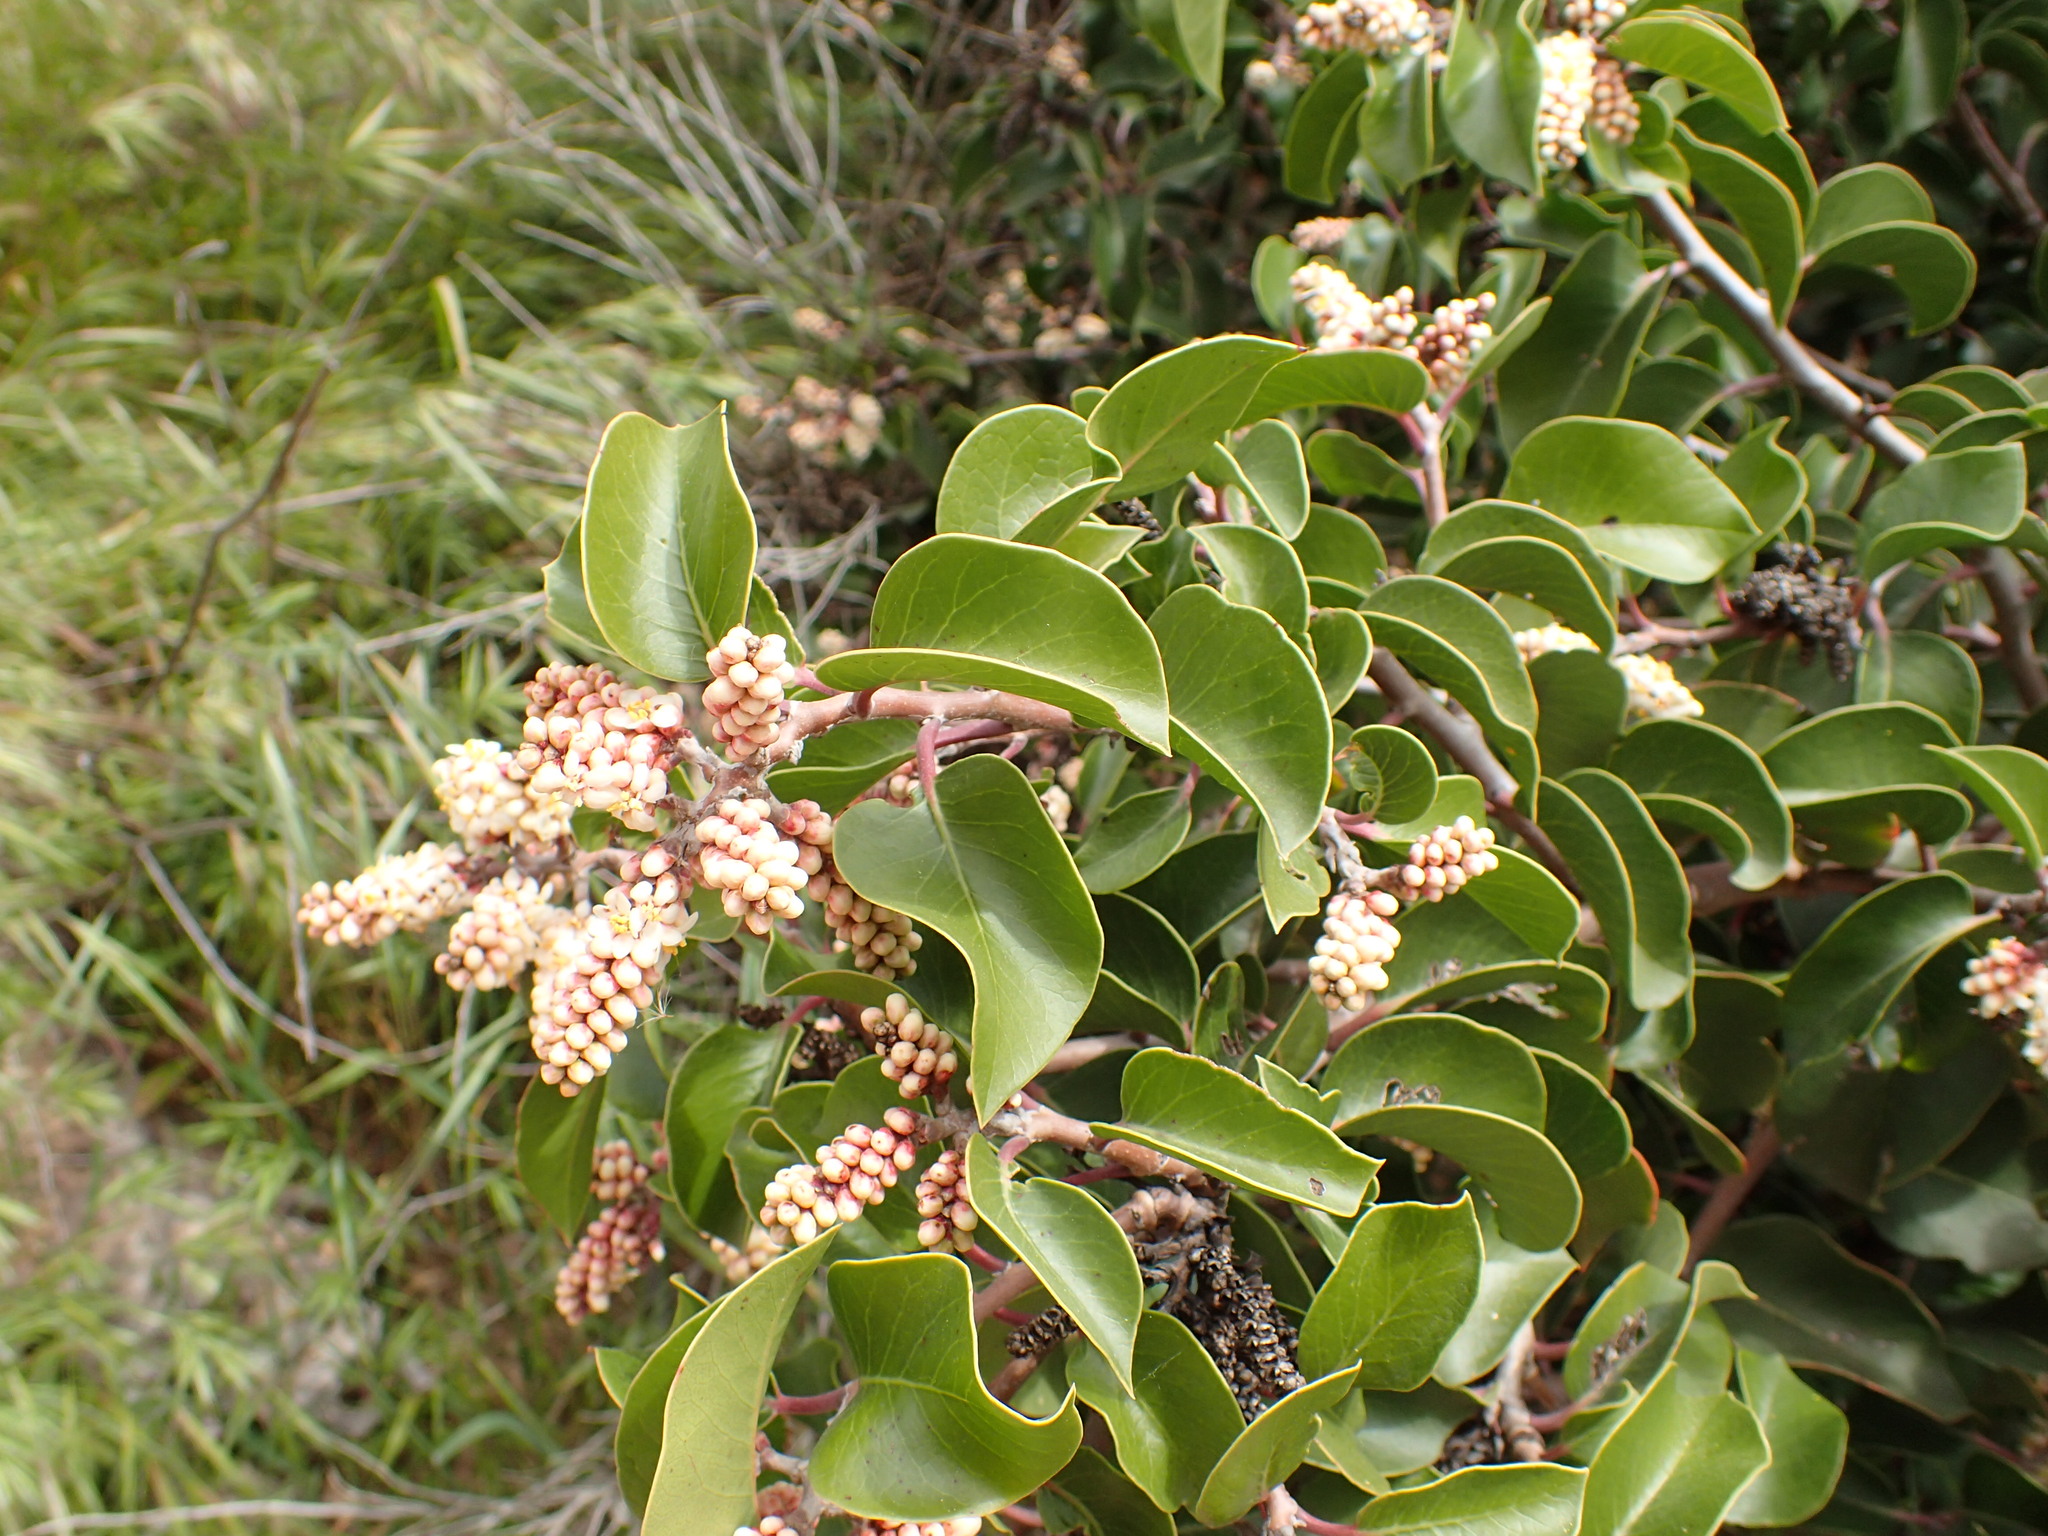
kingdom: Plantae
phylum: Tracheophyta
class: Magnoliopsida
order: Sapindales
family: Anacardiaceae
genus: Rhus
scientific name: Rhus ovata
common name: Sugar sumac
